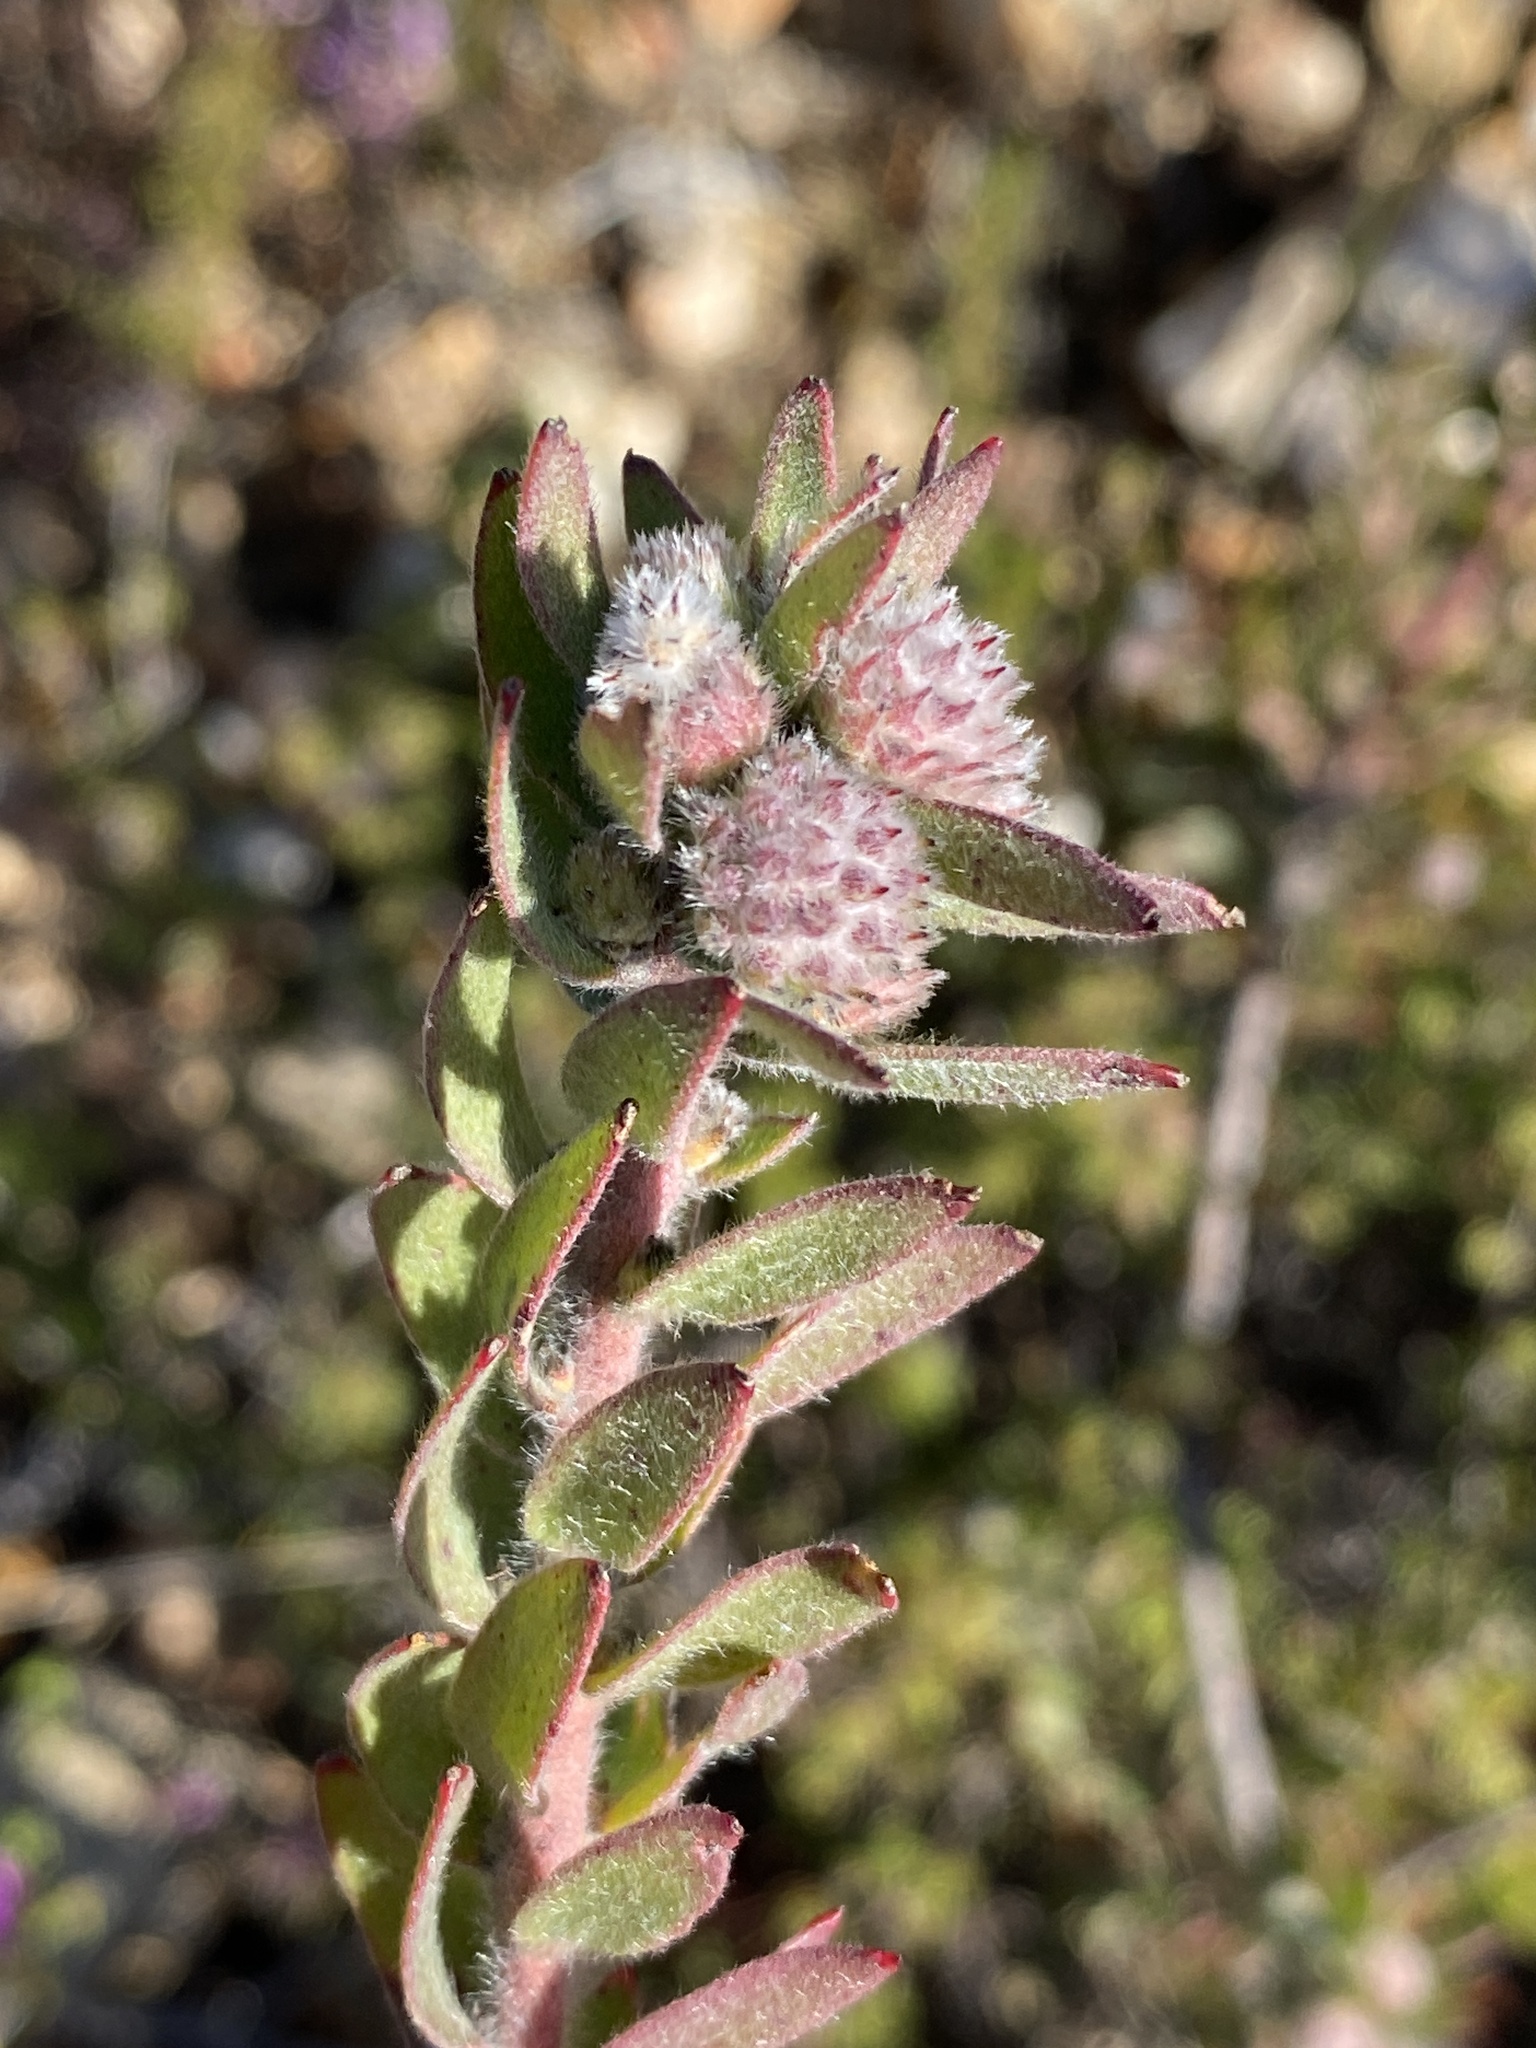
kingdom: Plantae
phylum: Tracheophyta
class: Magnoliopsida
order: Proteales
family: Proteaceae
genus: Leucospermum
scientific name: Leucospermum wittebergense
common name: Swartberg pincushion
